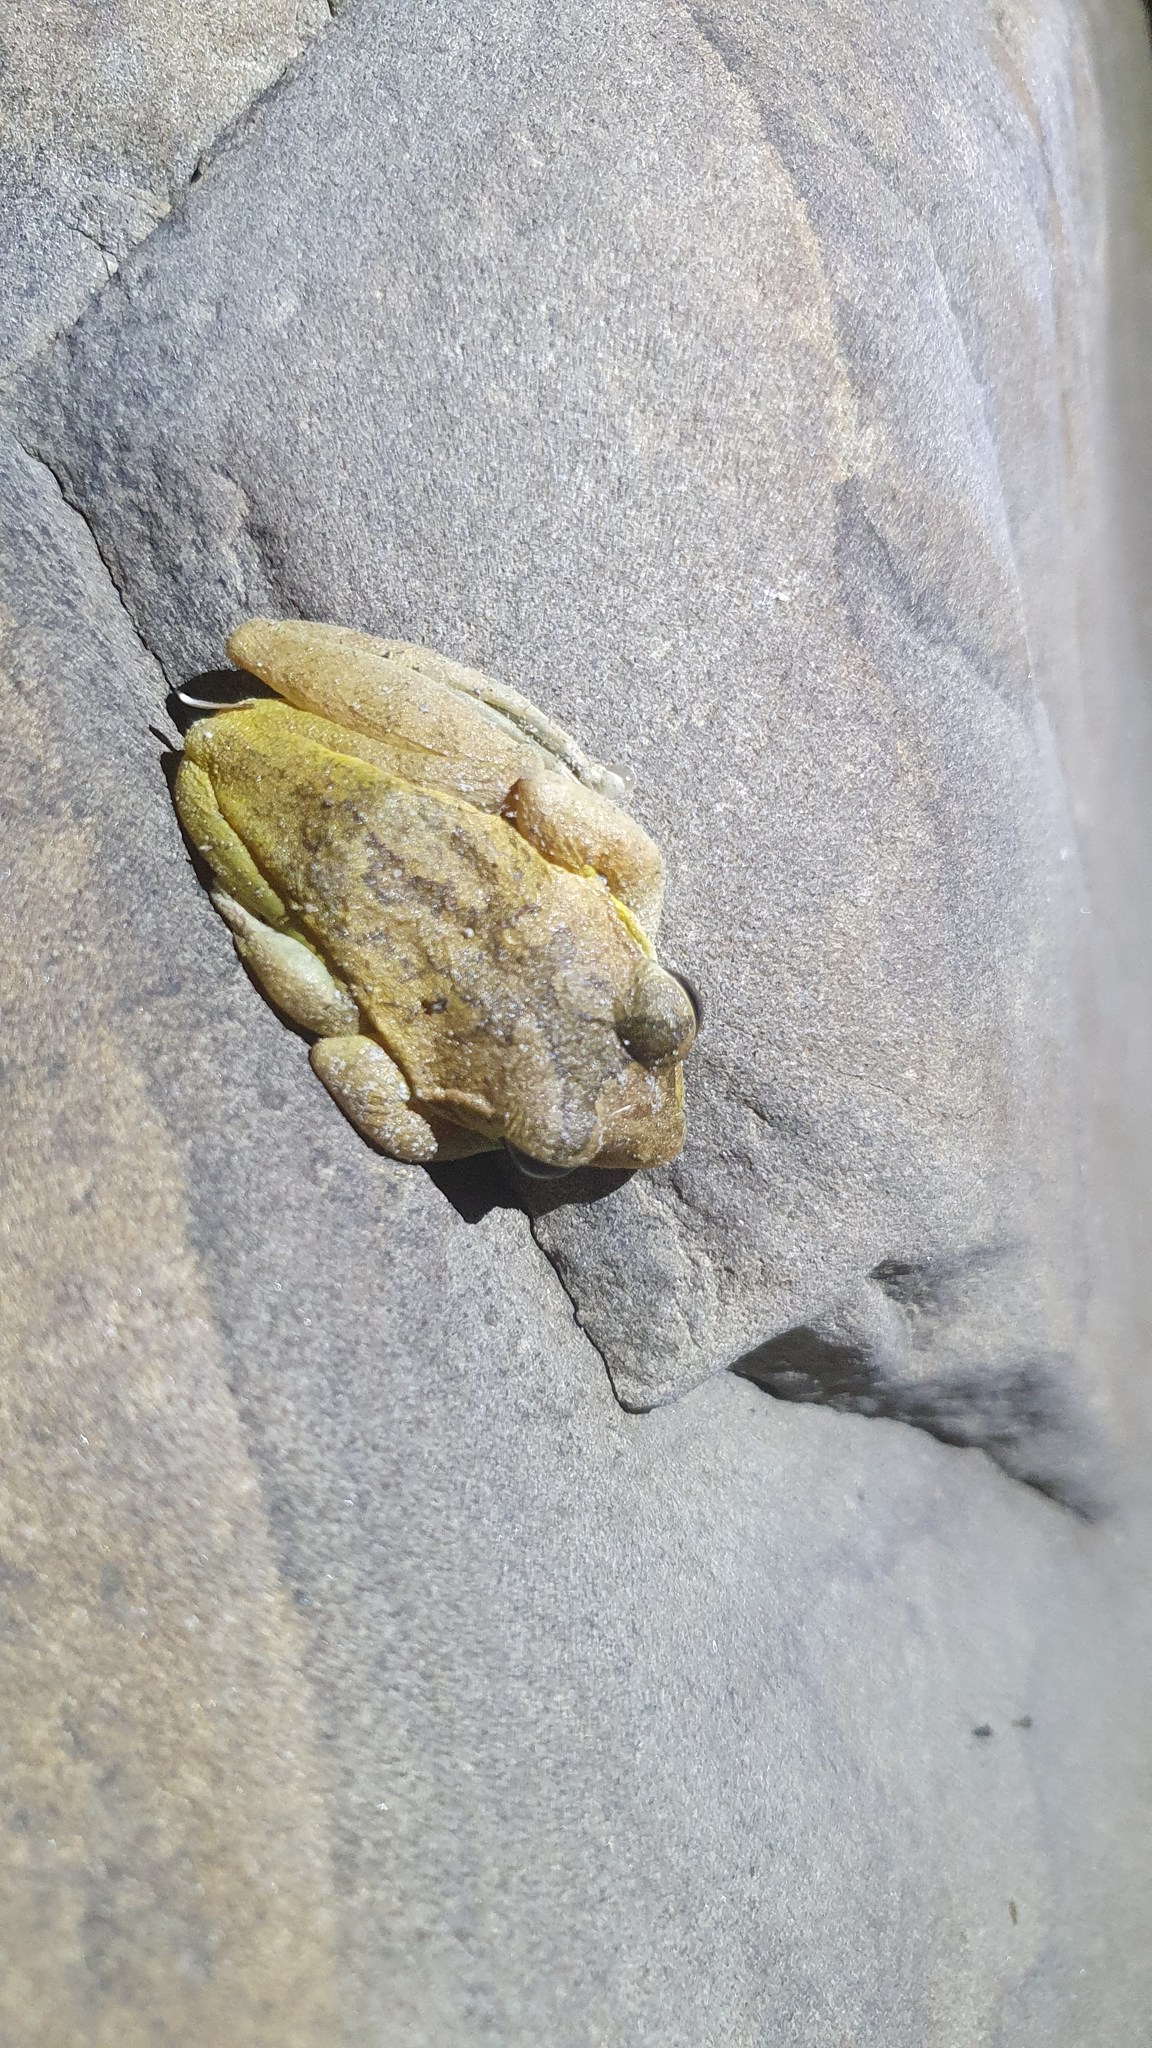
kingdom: Animalia
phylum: Chordata
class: Amphibia
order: Anura
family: Rhacophoridae
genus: Buergeria
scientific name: Buergeria robusta
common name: Brown treefrog
